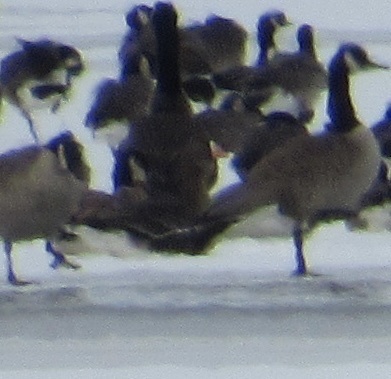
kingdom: Animalia
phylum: Chordata
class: Aves
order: Anseriformes
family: Anatidae
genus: Anser
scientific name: Anser albifrons
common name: Greater white-fronted goose
